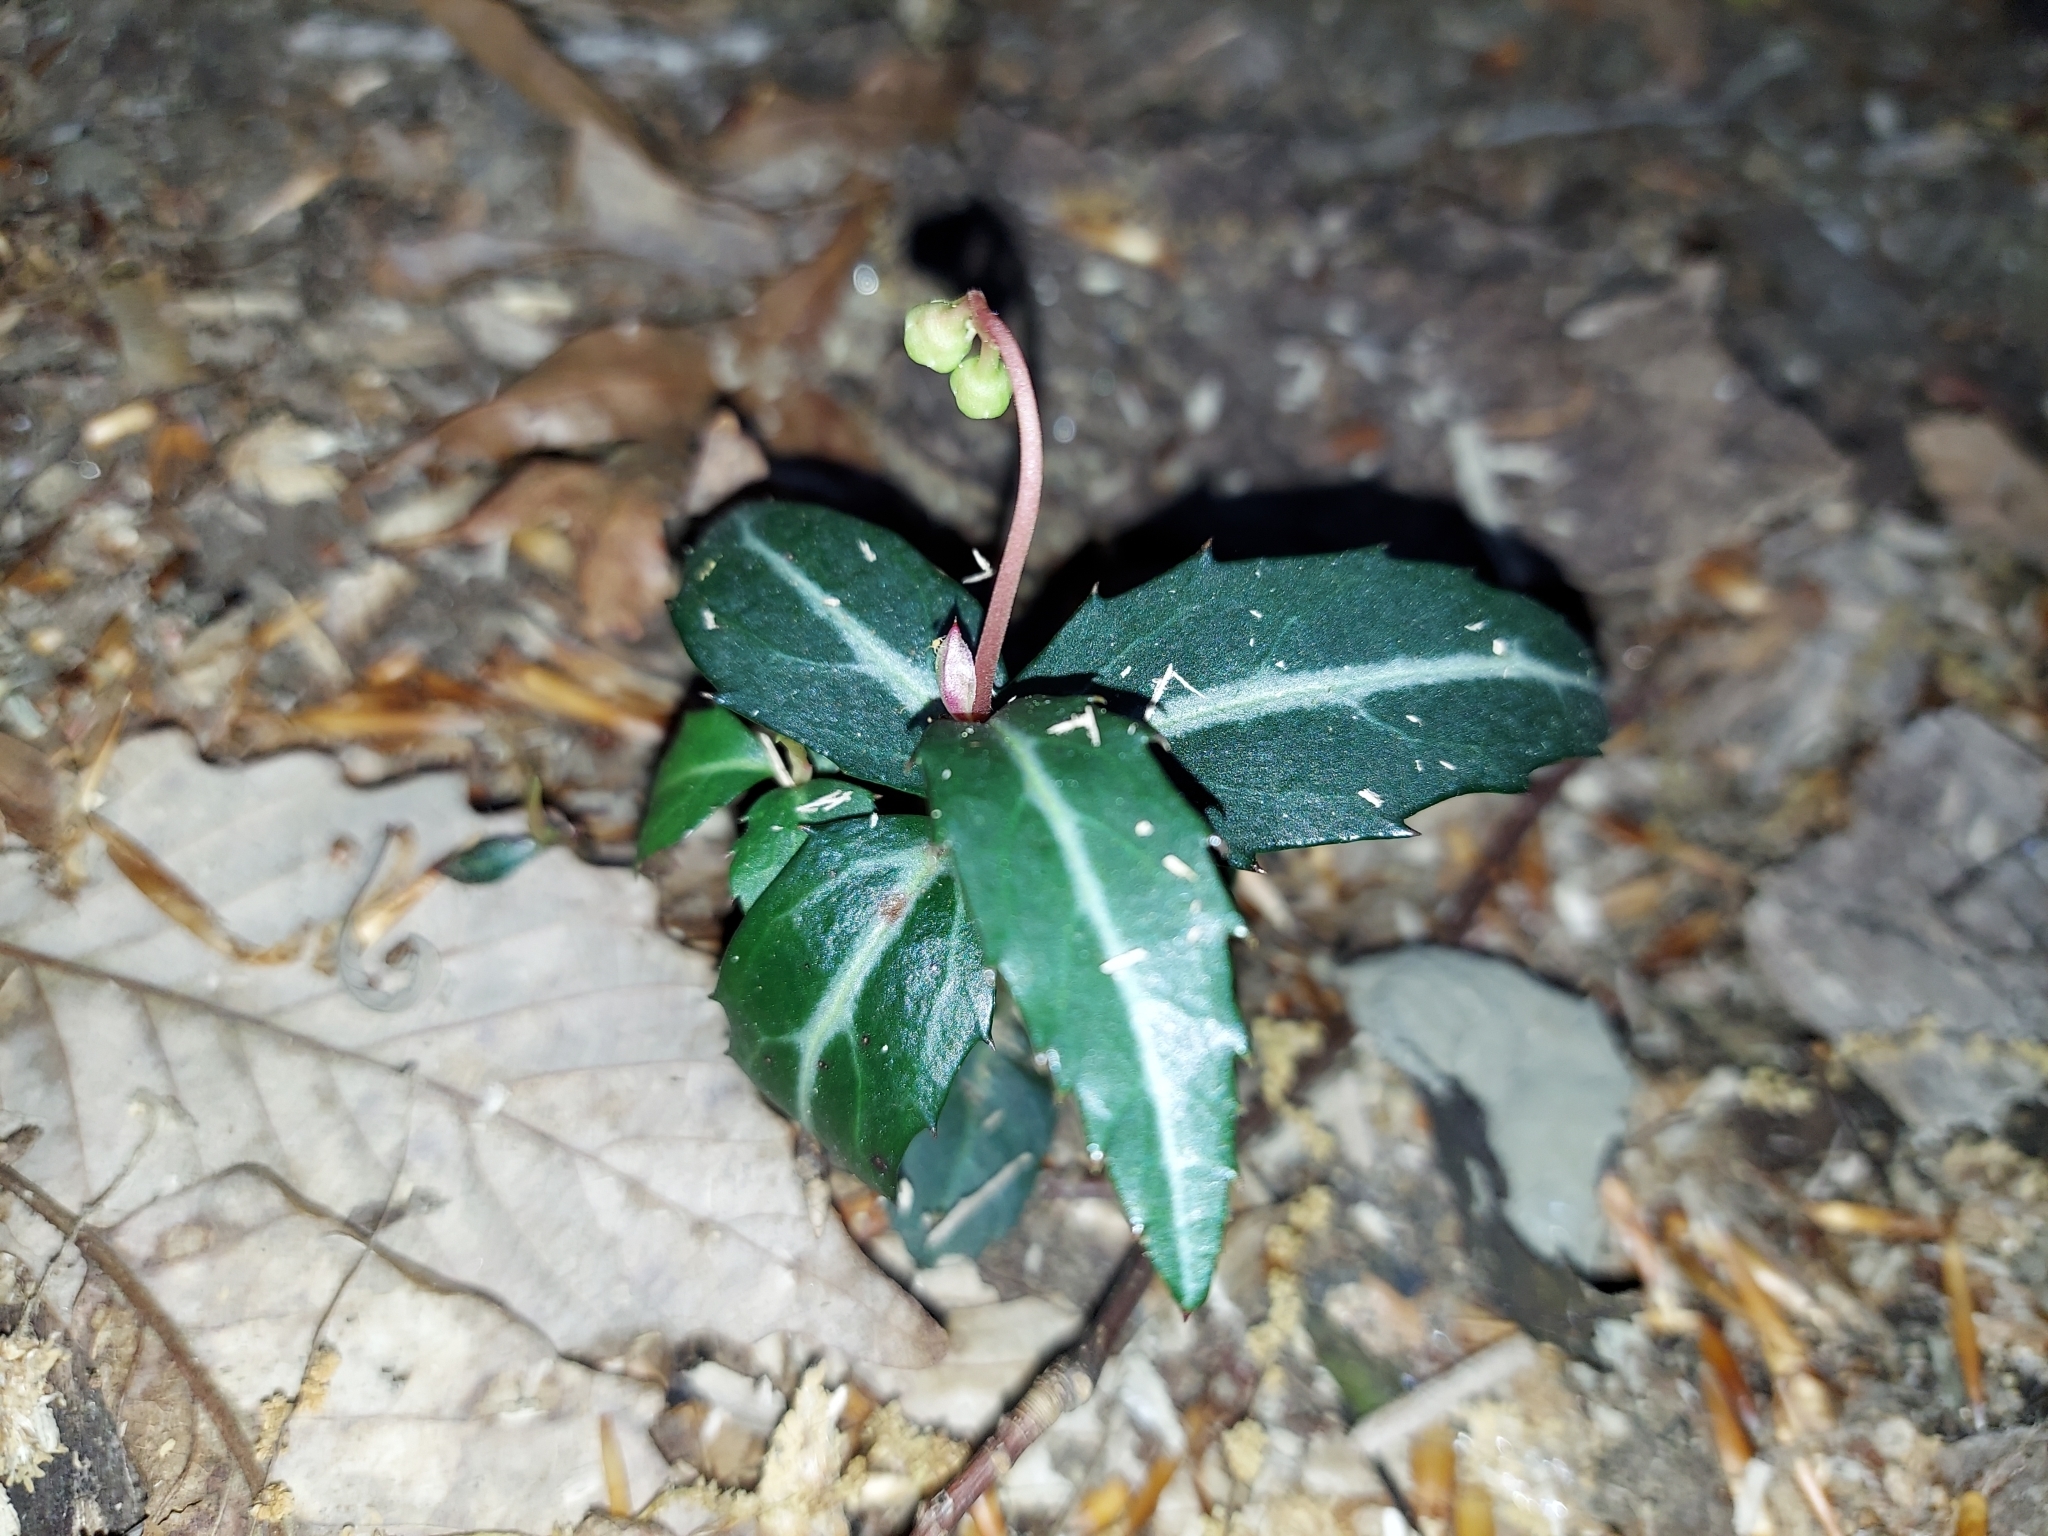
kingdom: Plantae
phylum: Tracheophyta
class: Magnoliopsida
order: Ericales
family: Ericaceae
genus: Chimaphila
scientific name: Chimaphila maculata
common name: Spotted pipsissewa
